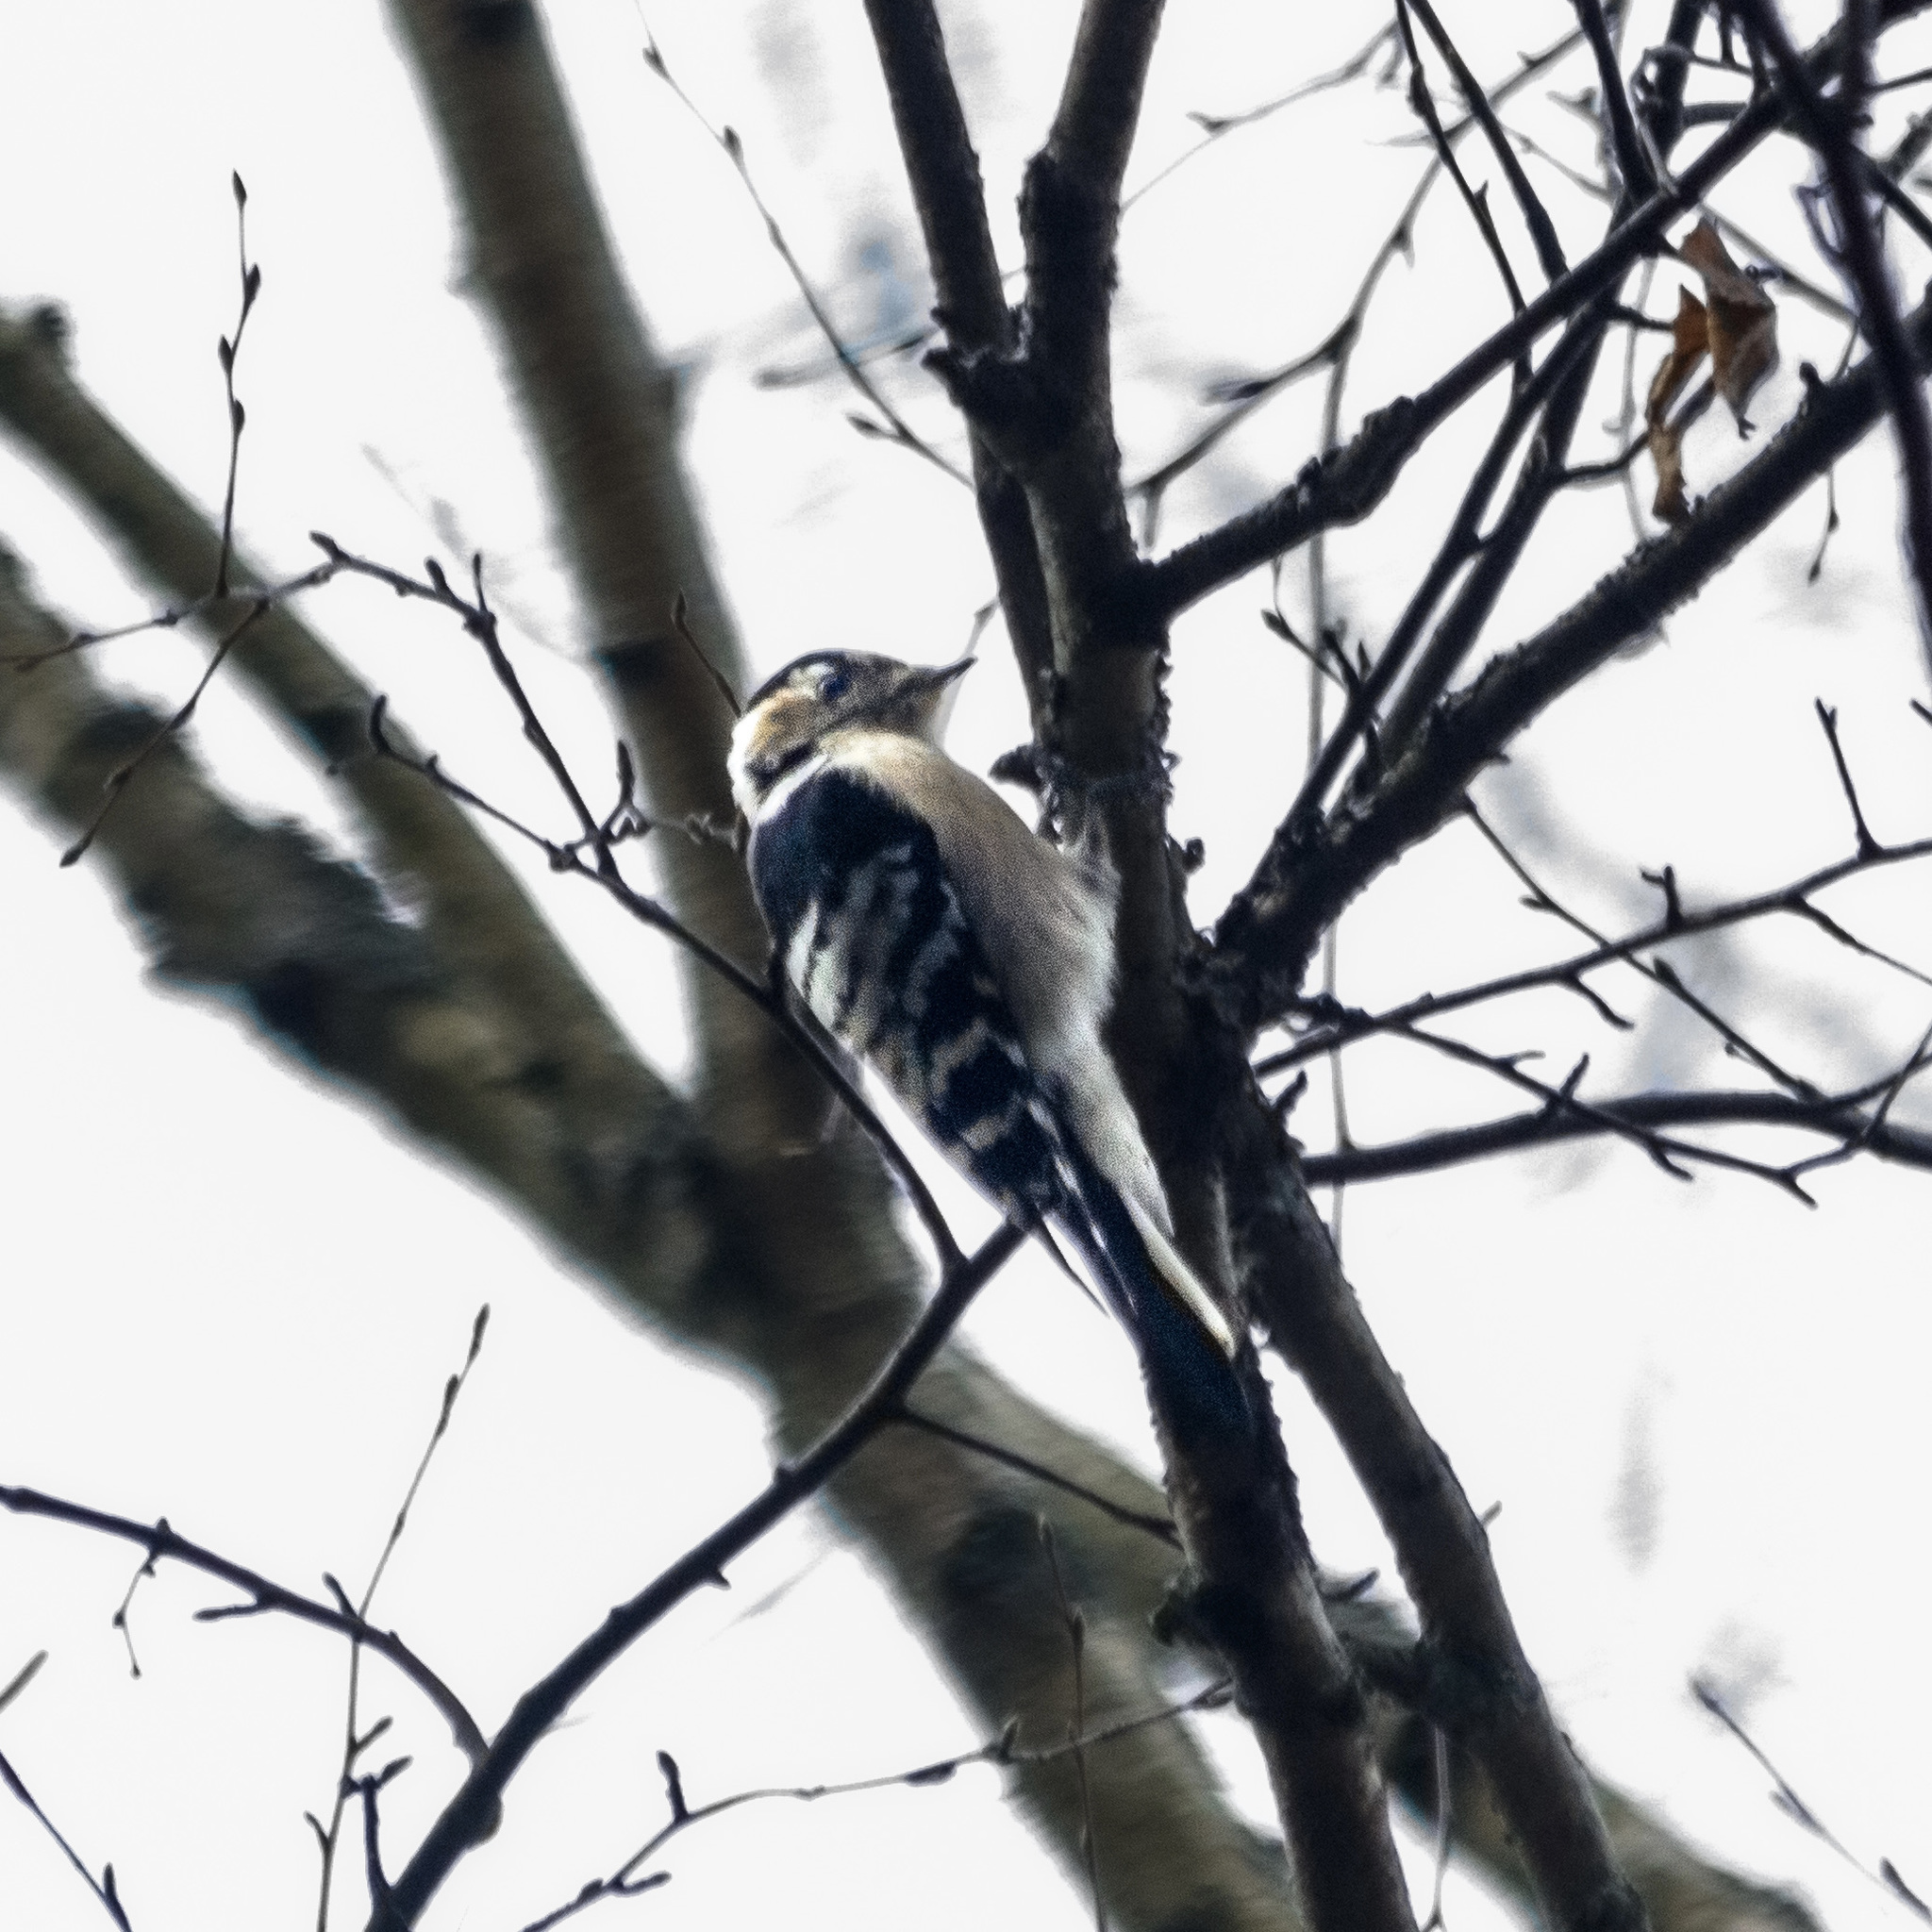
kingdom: Animalia
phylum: Chordata
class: Aves
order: Piciformes
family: Picidae
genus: Dryobates
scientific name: Dryobates minor
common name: Lesser spotted woodpecker
